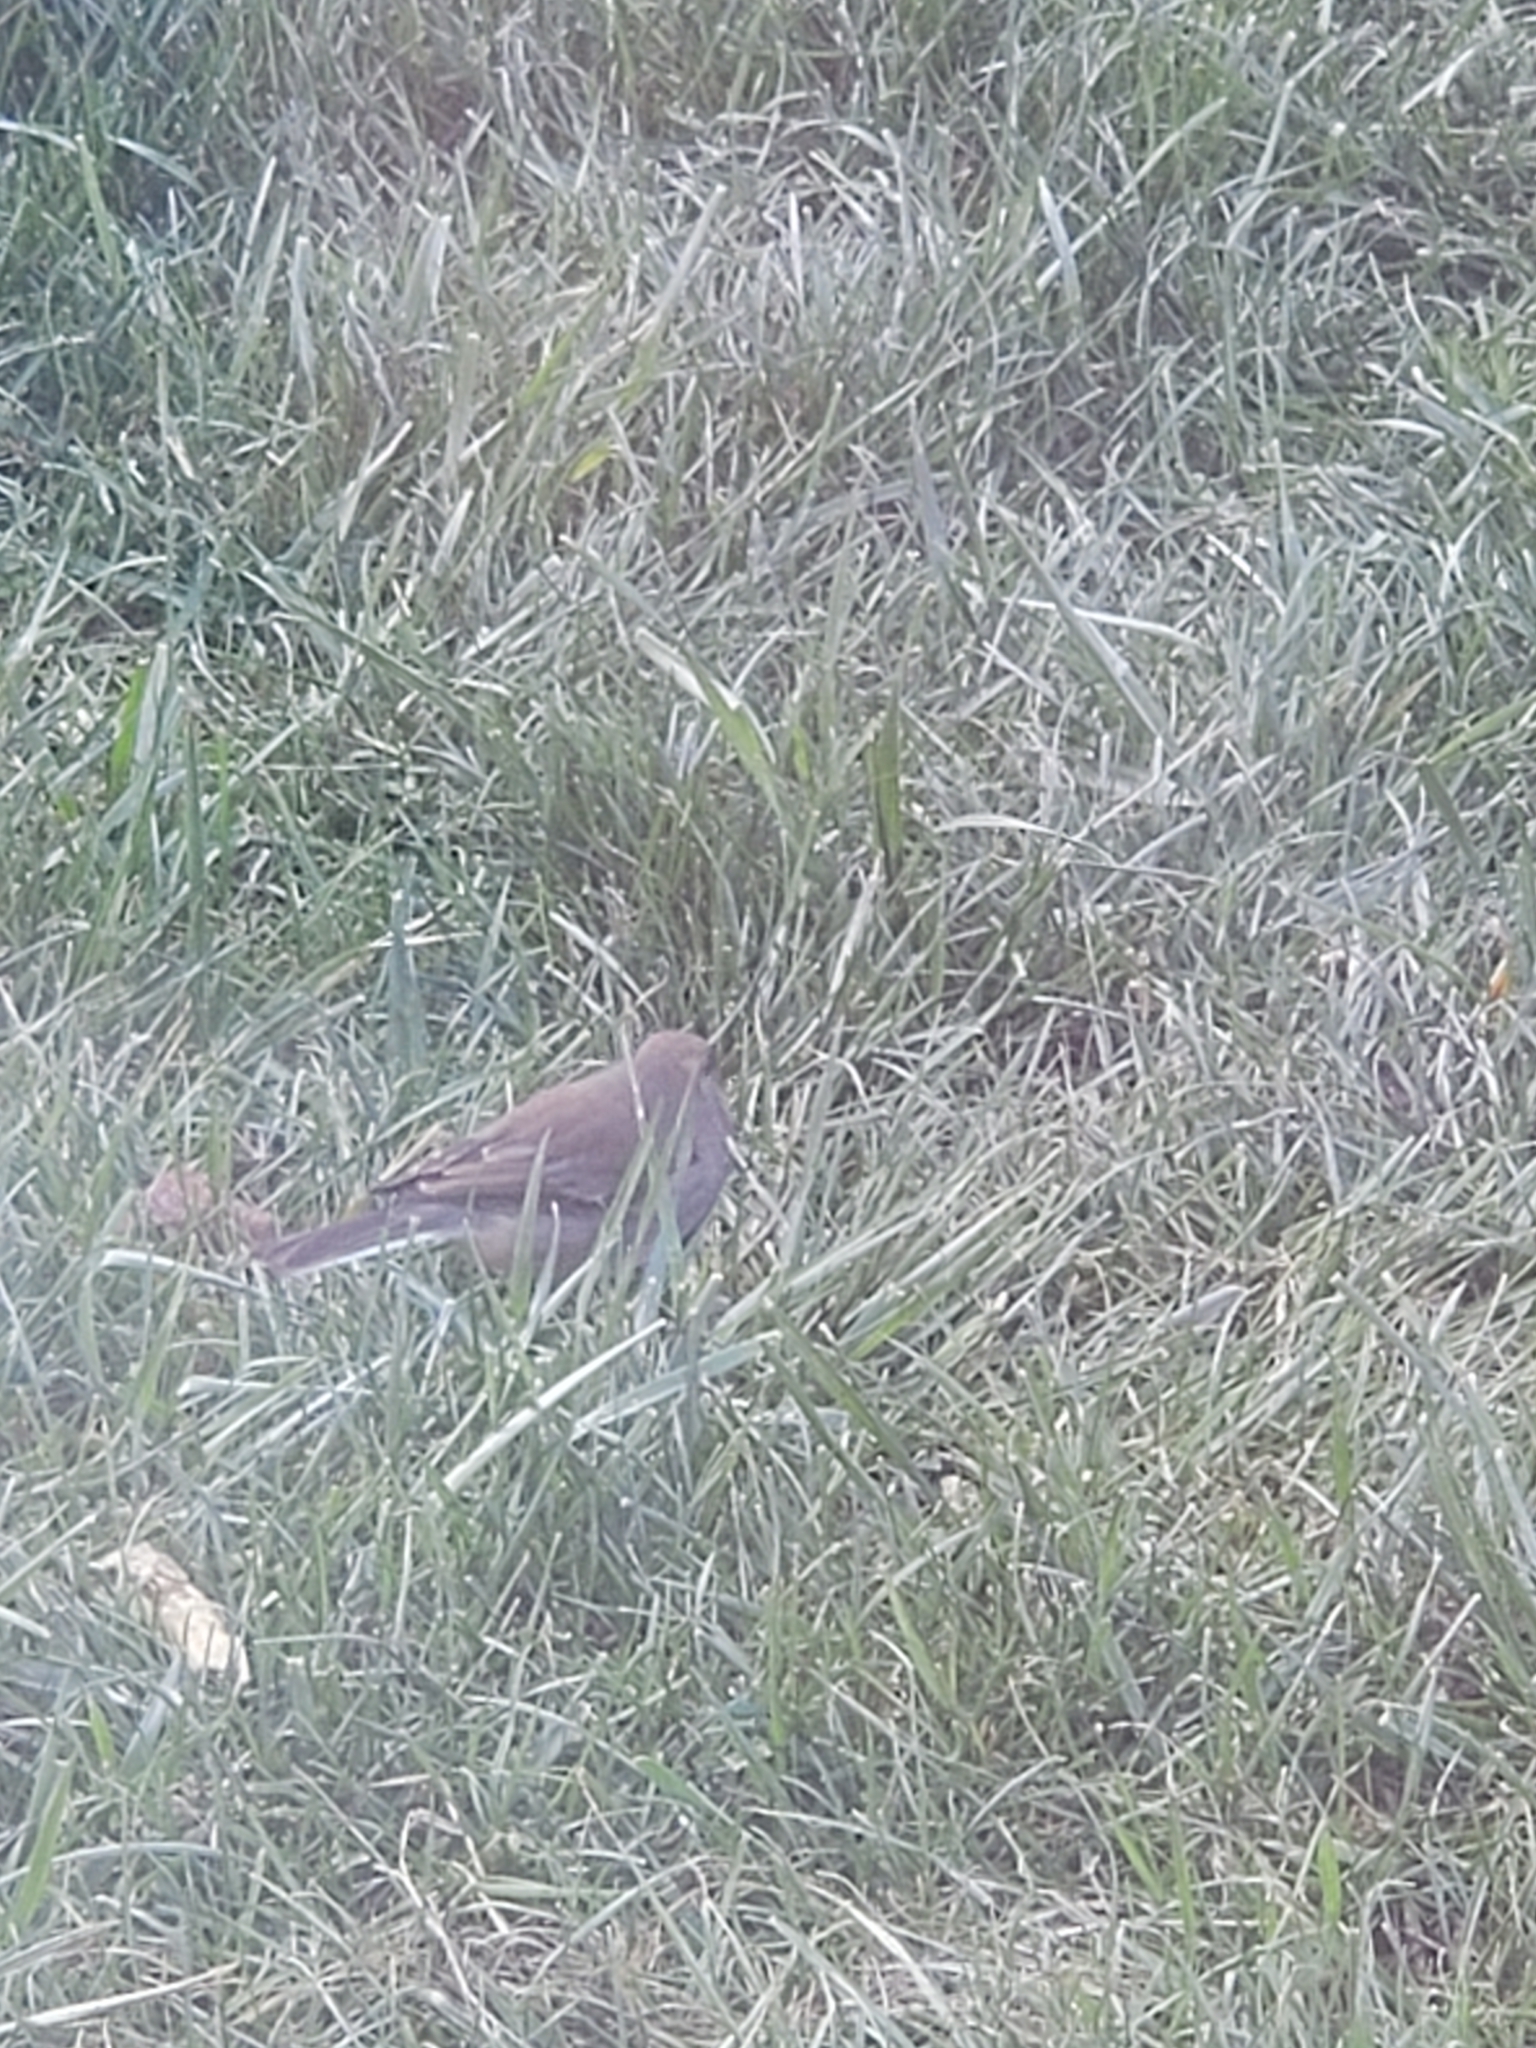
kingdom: Animalia
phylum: Chordata
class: Aves
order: Passeriformes
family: Passerellidae
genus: Junco
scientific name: Junco hyemalis
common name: Dark-eyed junco
